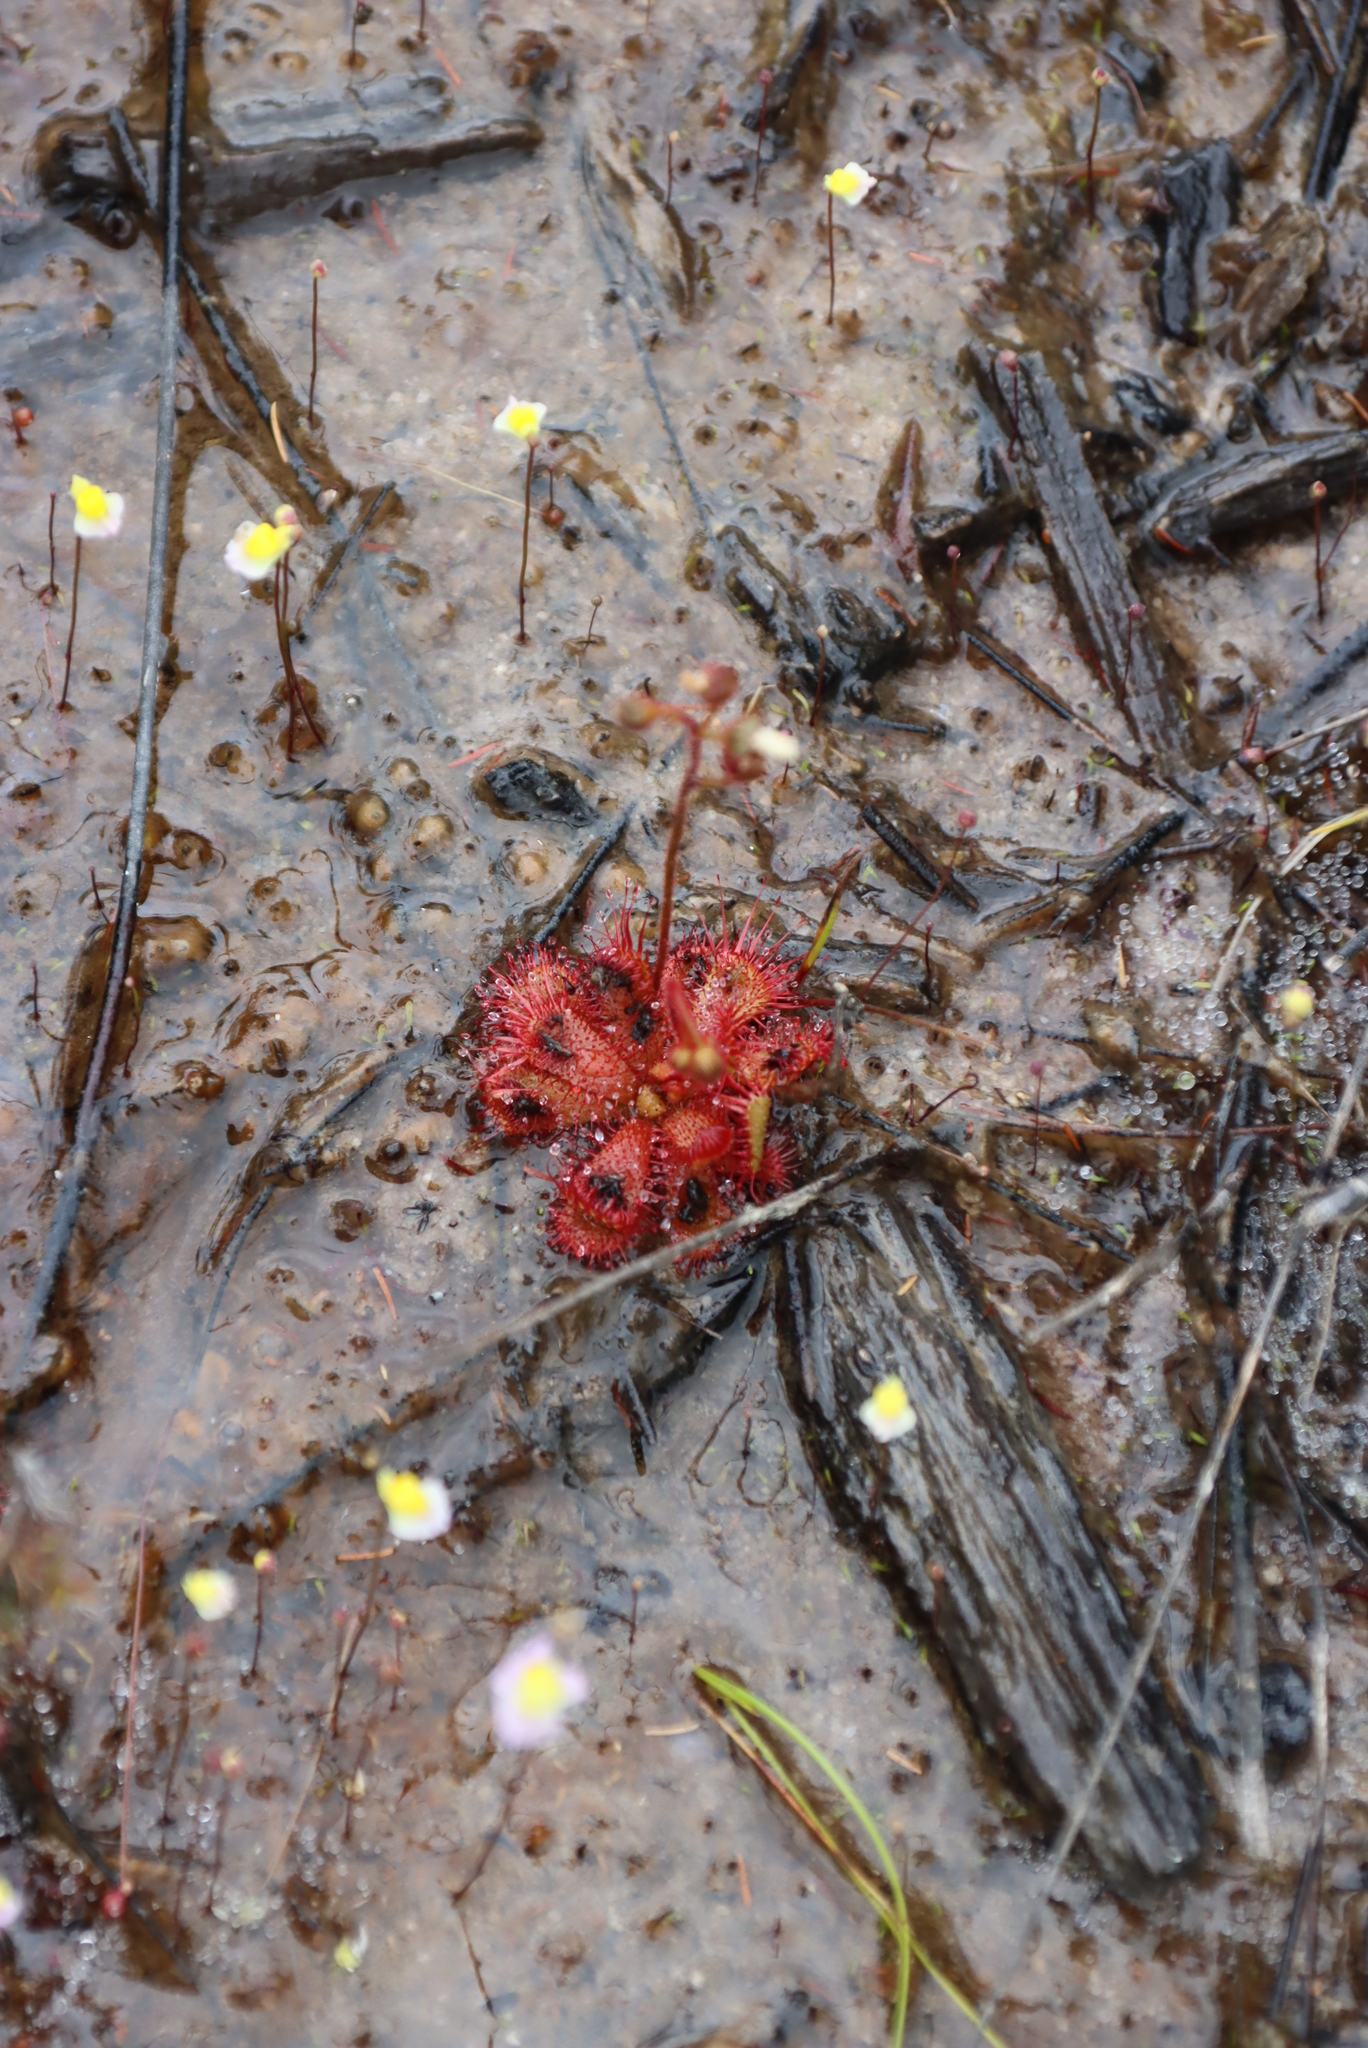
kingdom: Plantae
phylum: Tracheophyta
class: Magnoliopsida
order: Caryophyllales
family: Droseraceae
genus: Drosera
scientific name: Drosera trinervia
